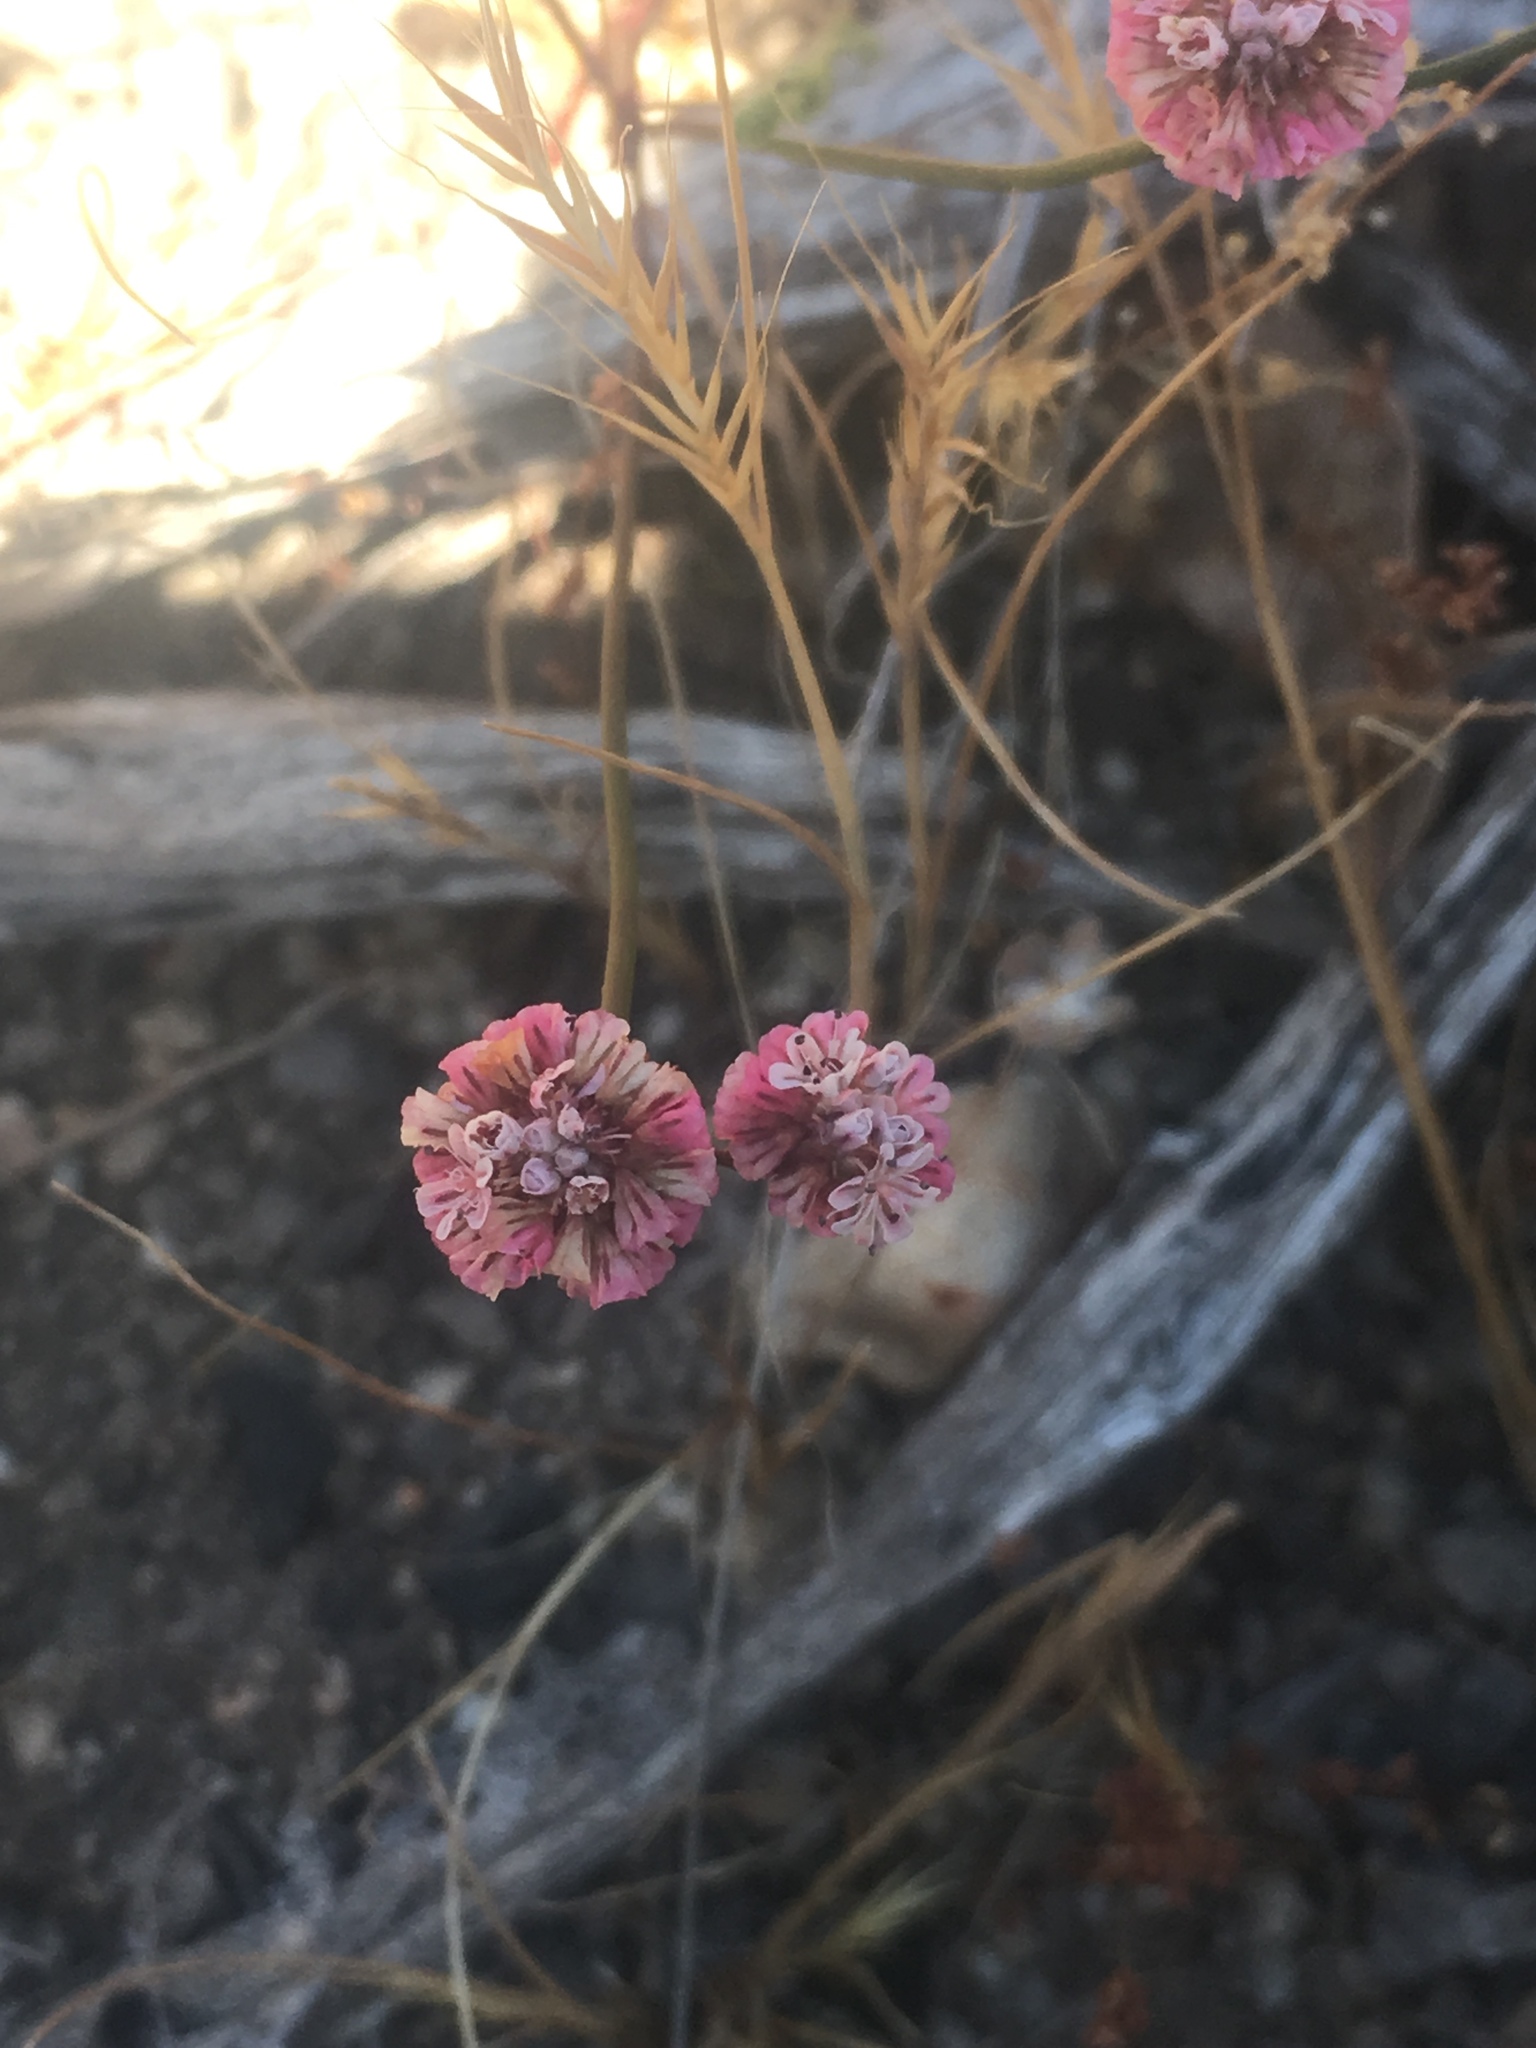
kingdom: Plantae
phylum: Tracheophyta
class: Magnoliopsida
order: Caryophyllales
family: Polygonaceae
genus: Eriogonum
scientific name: Eriogonum nortonii
